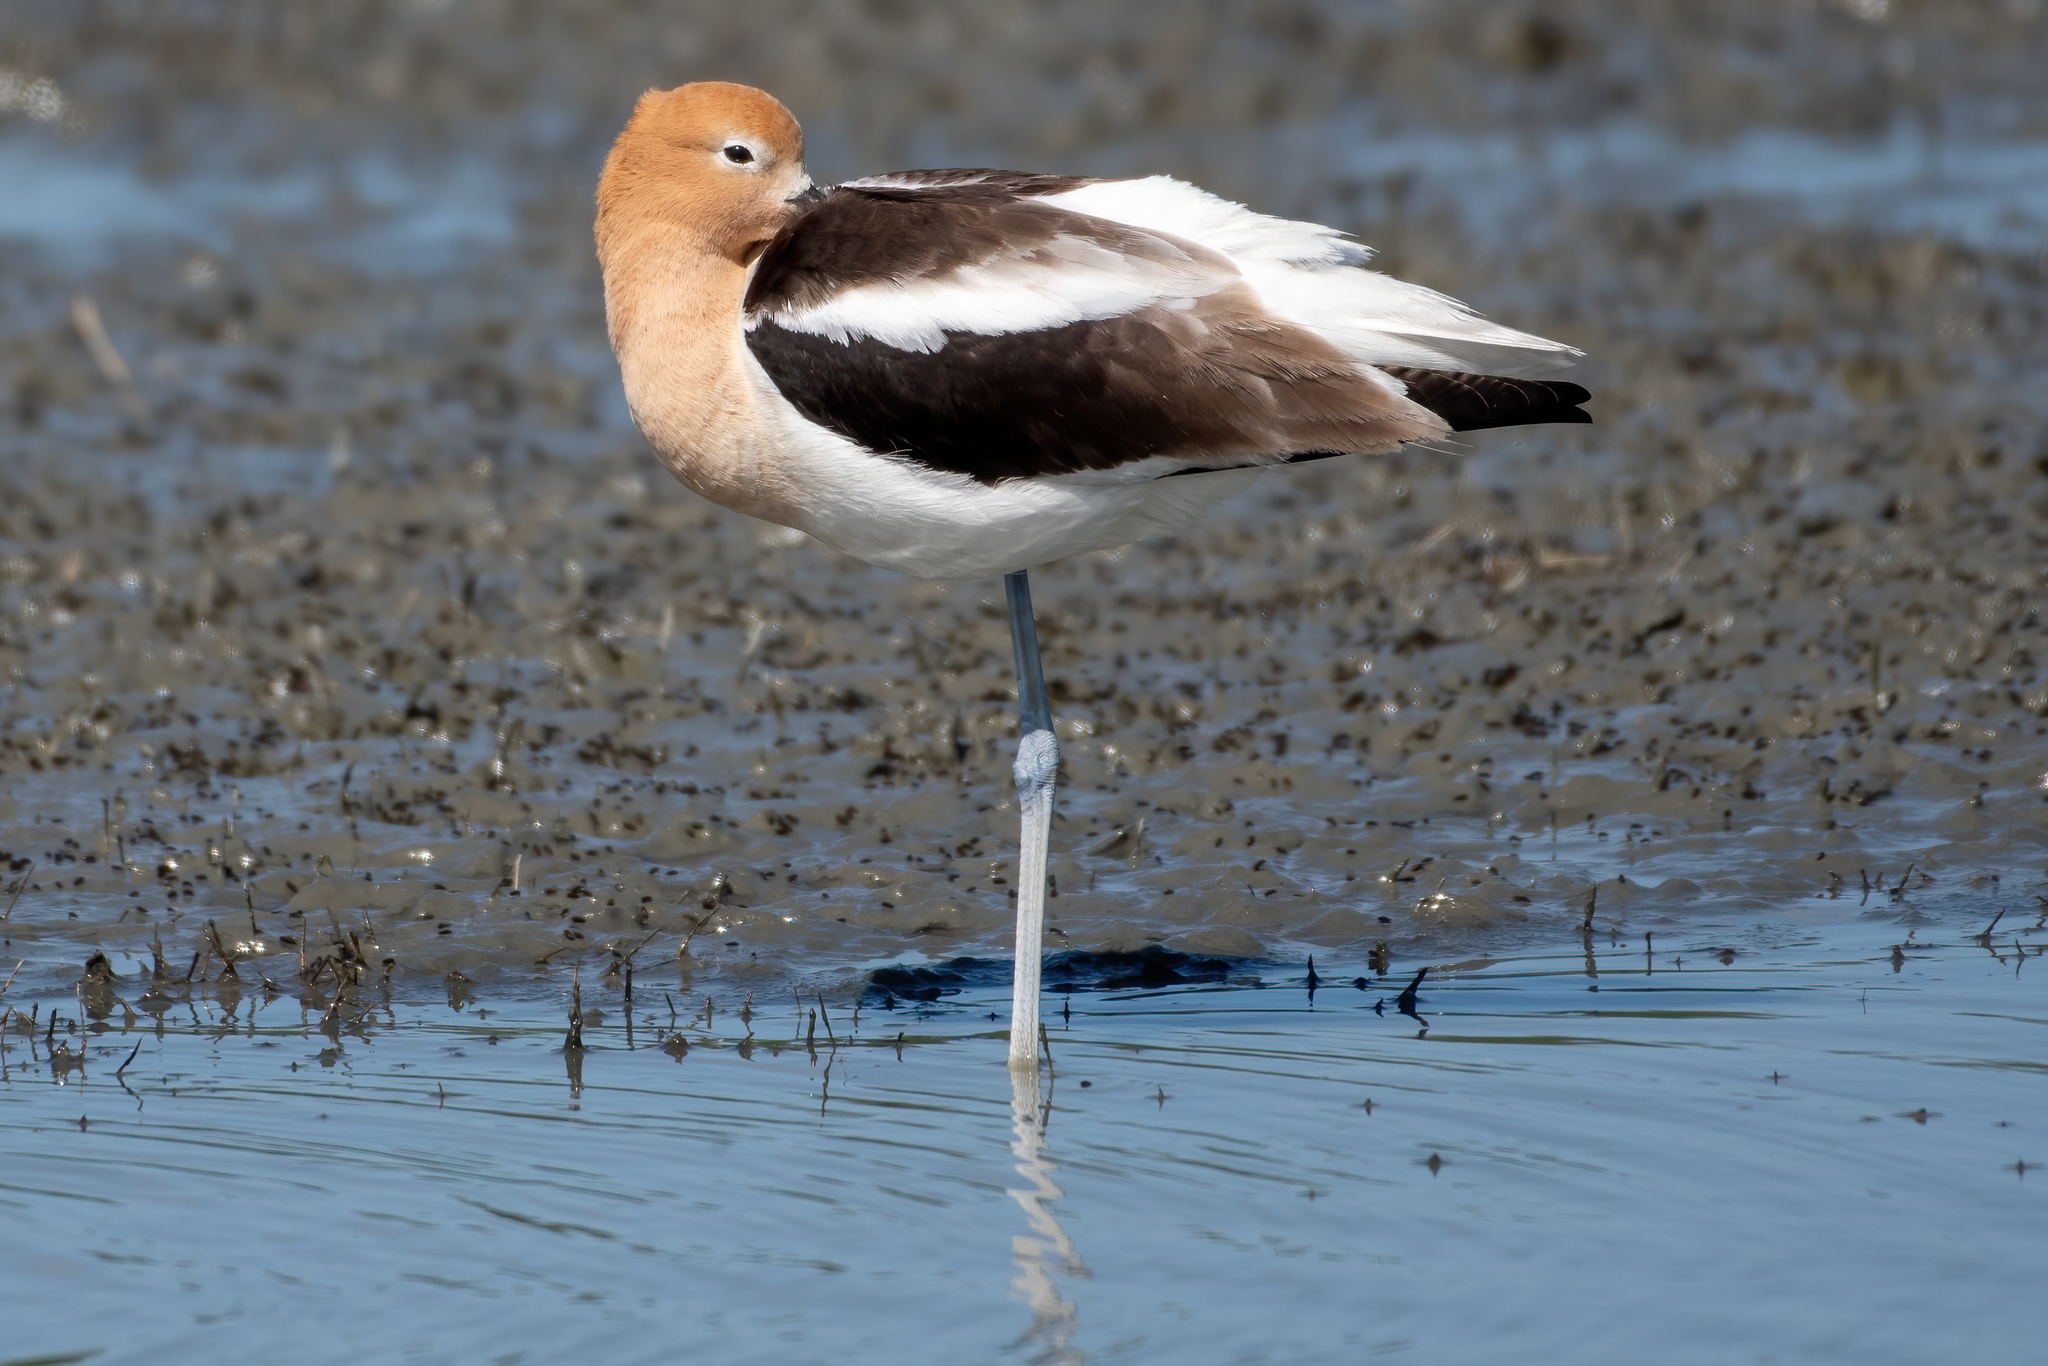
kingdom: Animalia
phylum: Chordata
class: Aves
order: Charadriiformes
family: Recurvirostridae
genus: Recurvirostra
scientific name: Recurvirostra americana
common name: American avocet
